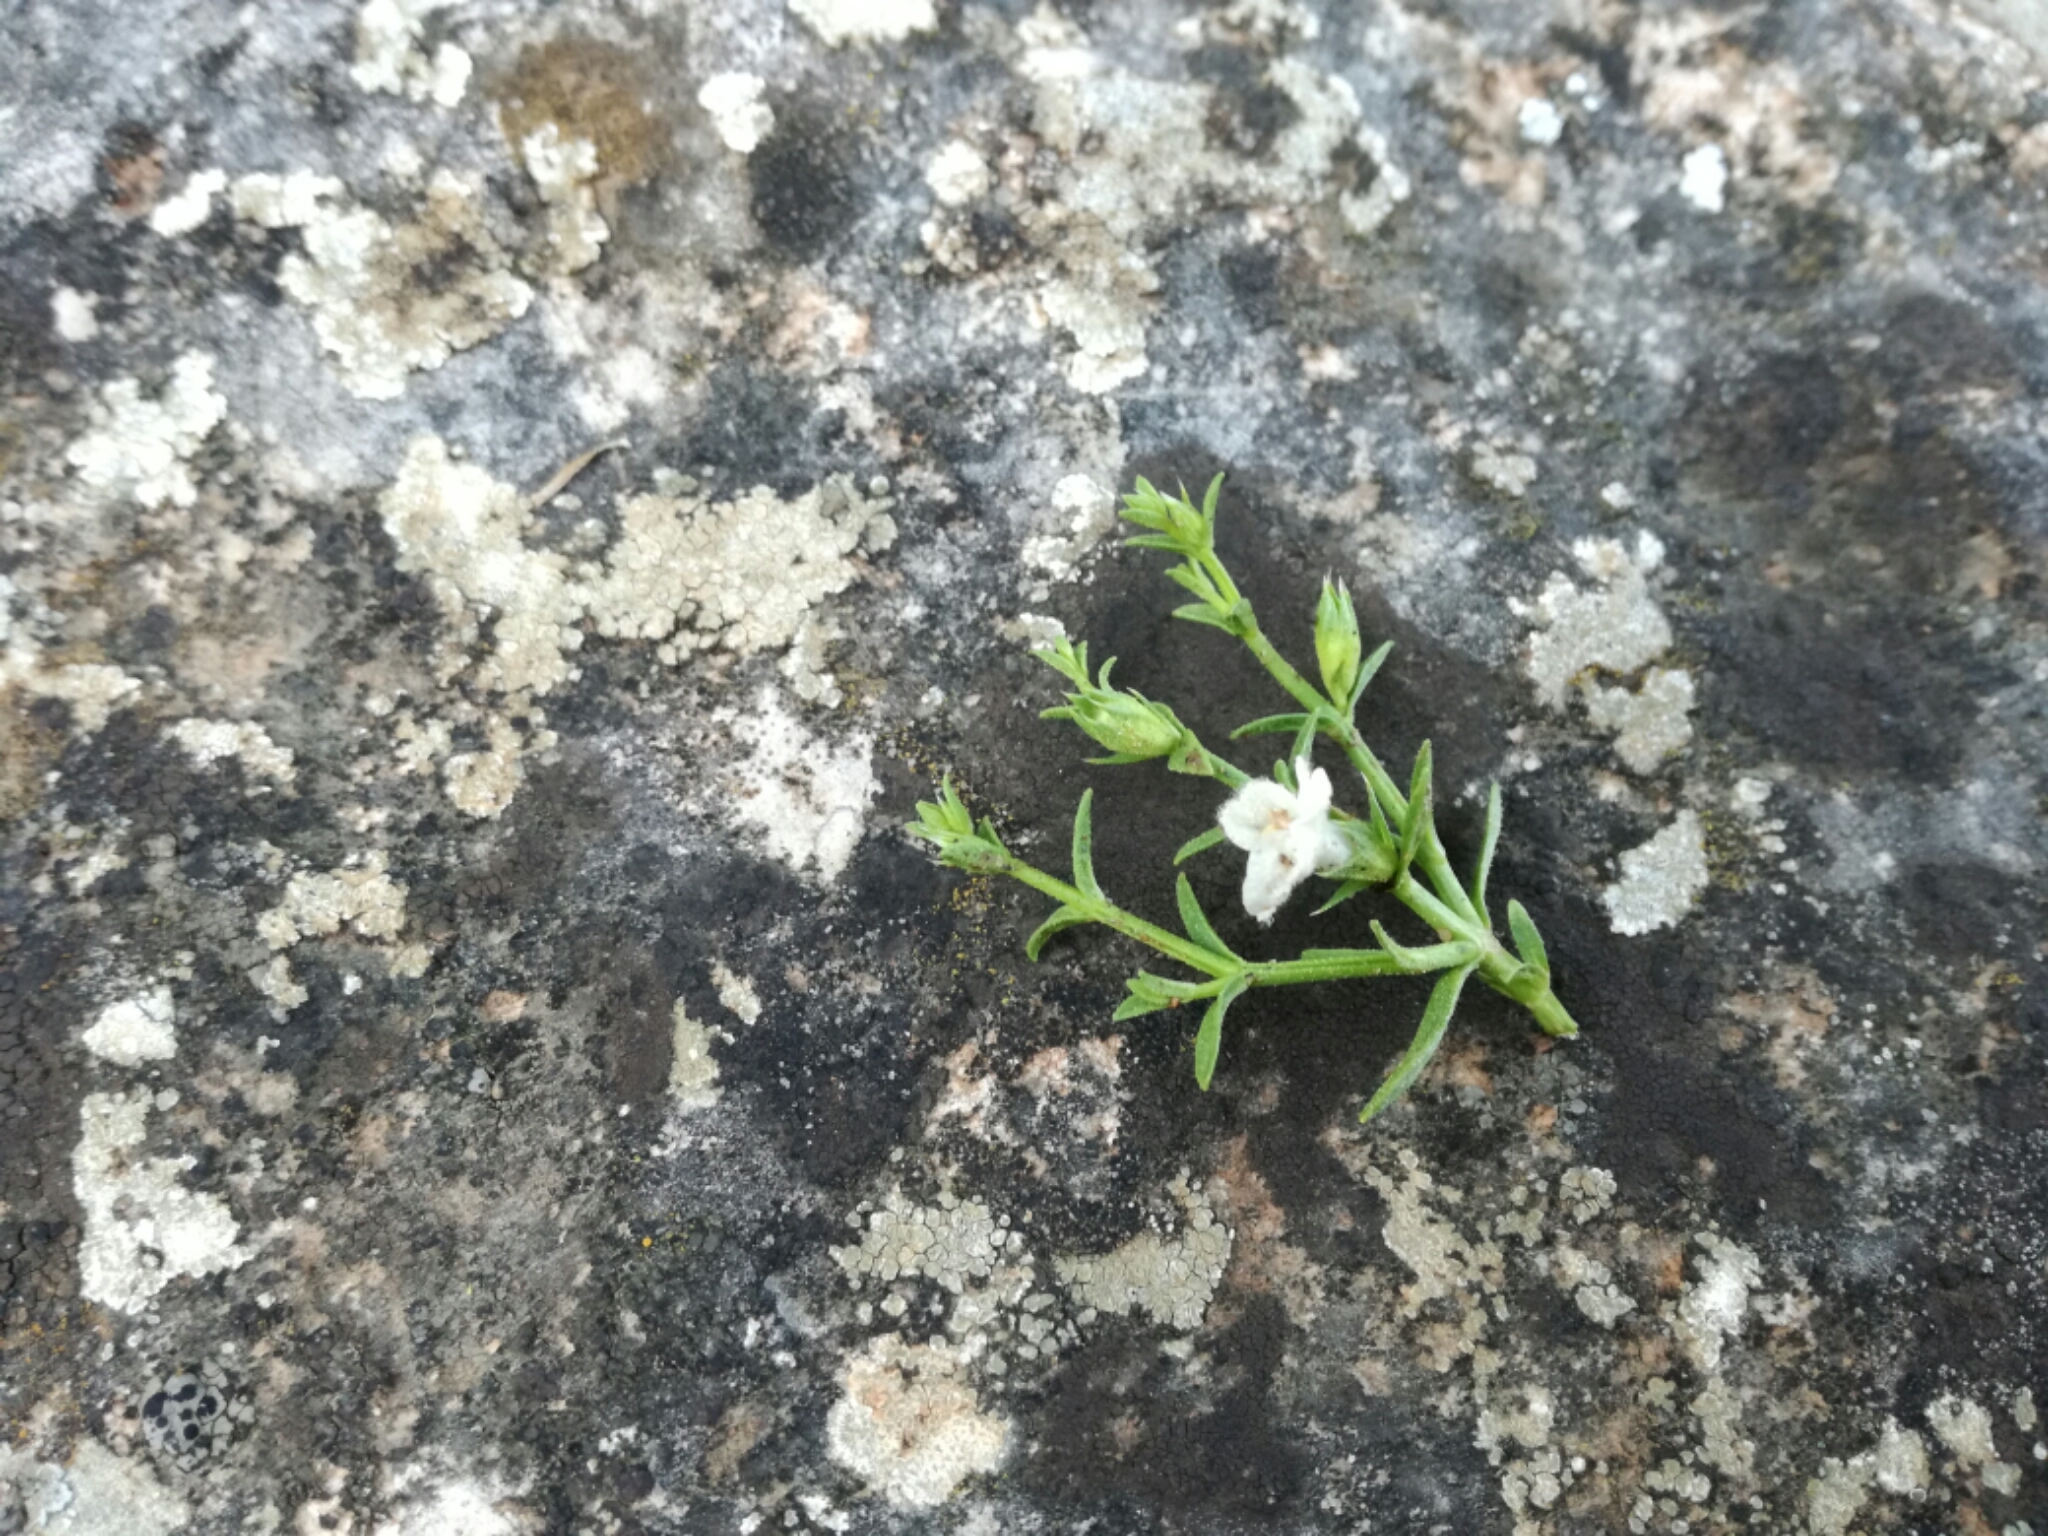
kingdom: Plantae
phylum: Tracheophyta
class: Magnoliopsida
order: Lamiales
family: Lamiaceae
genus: Stachys
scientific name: Stachys glutinosa
